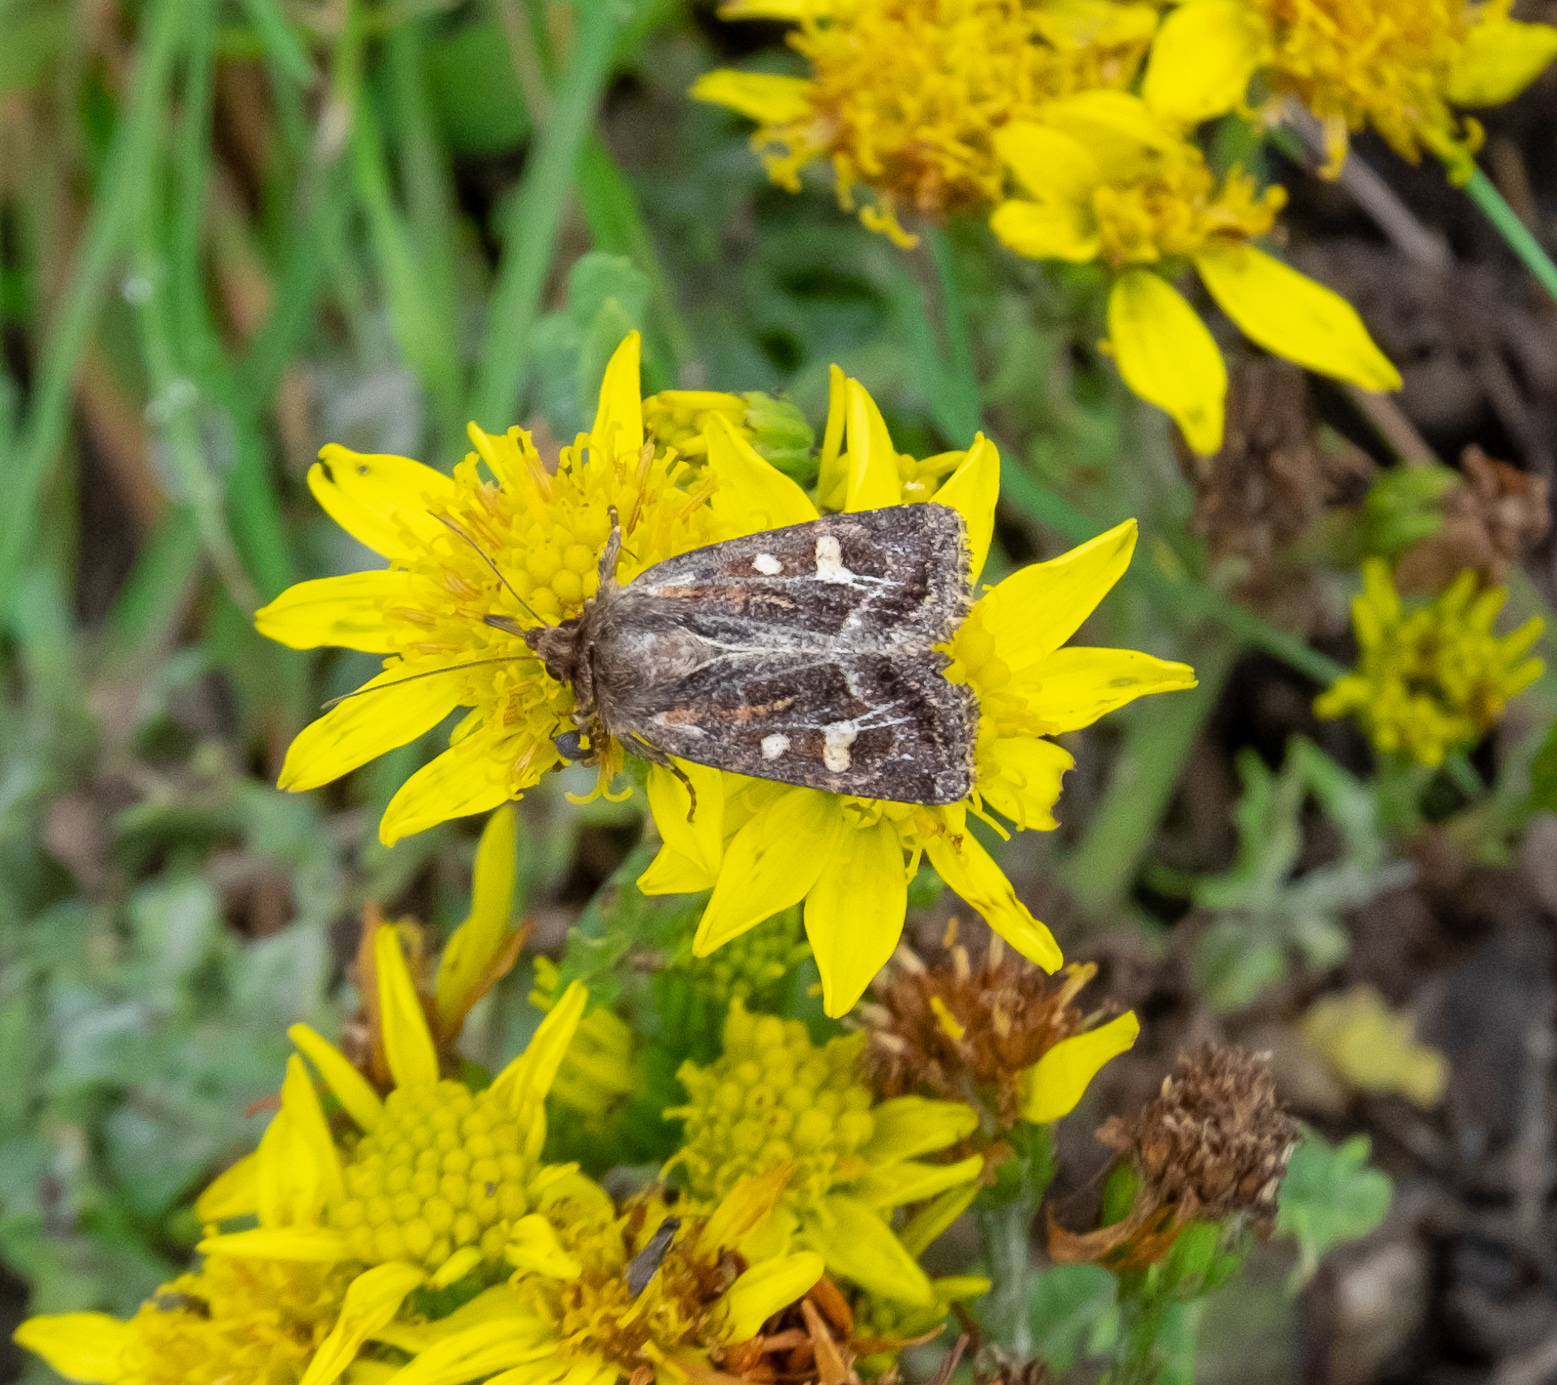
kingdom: Animalia
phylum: Arthropoda
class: Insecta
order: Lepidoptera
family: Noctuidae
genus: Celaena
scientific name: Celaena haworthii
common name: Haworth's minor
